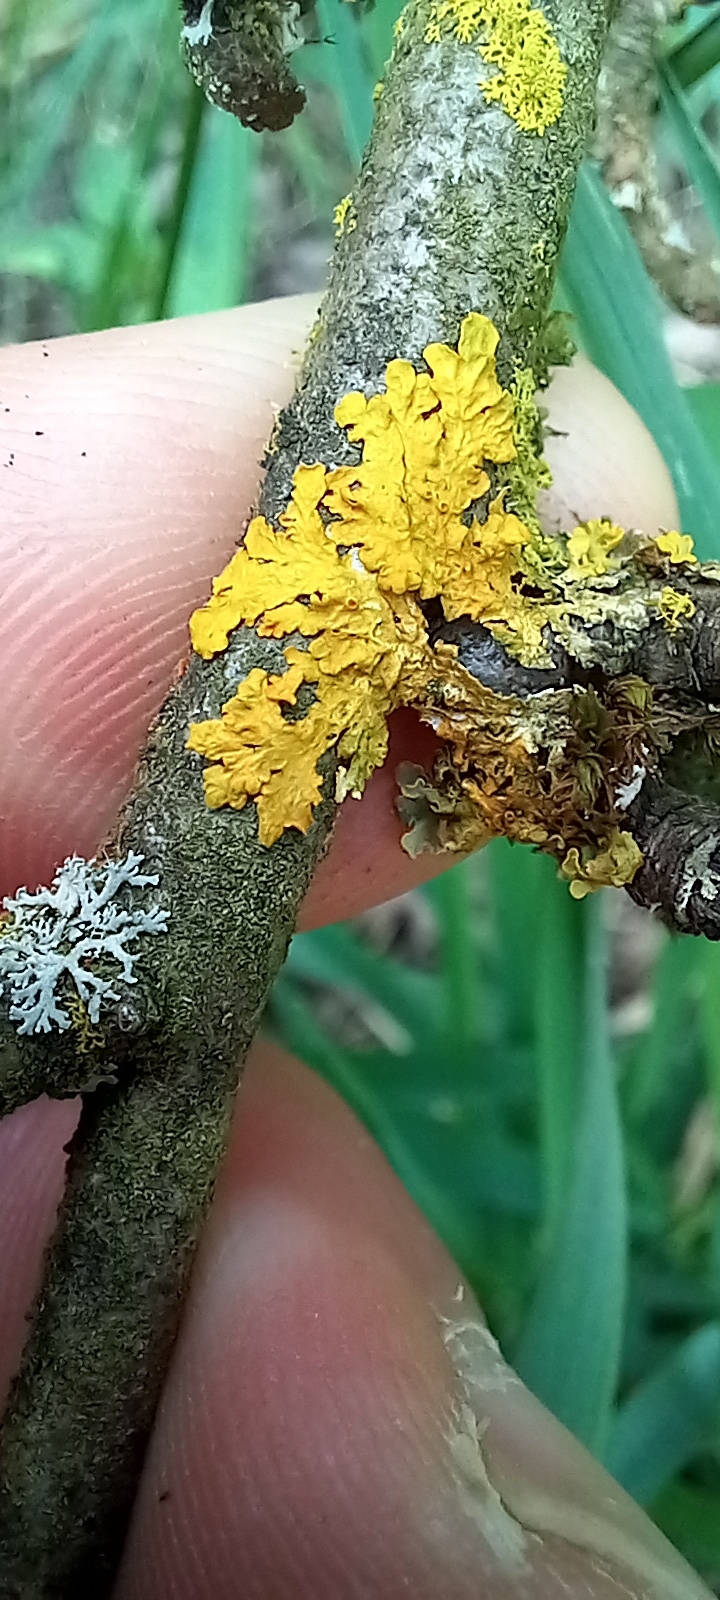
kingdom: Fungi
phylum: Ascomycota
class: Lecanoromycetes
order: Teloschistales
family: Teloschistaceae
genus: Xanthoria
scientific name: Xanthoria parietina
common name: Common orange lichen
